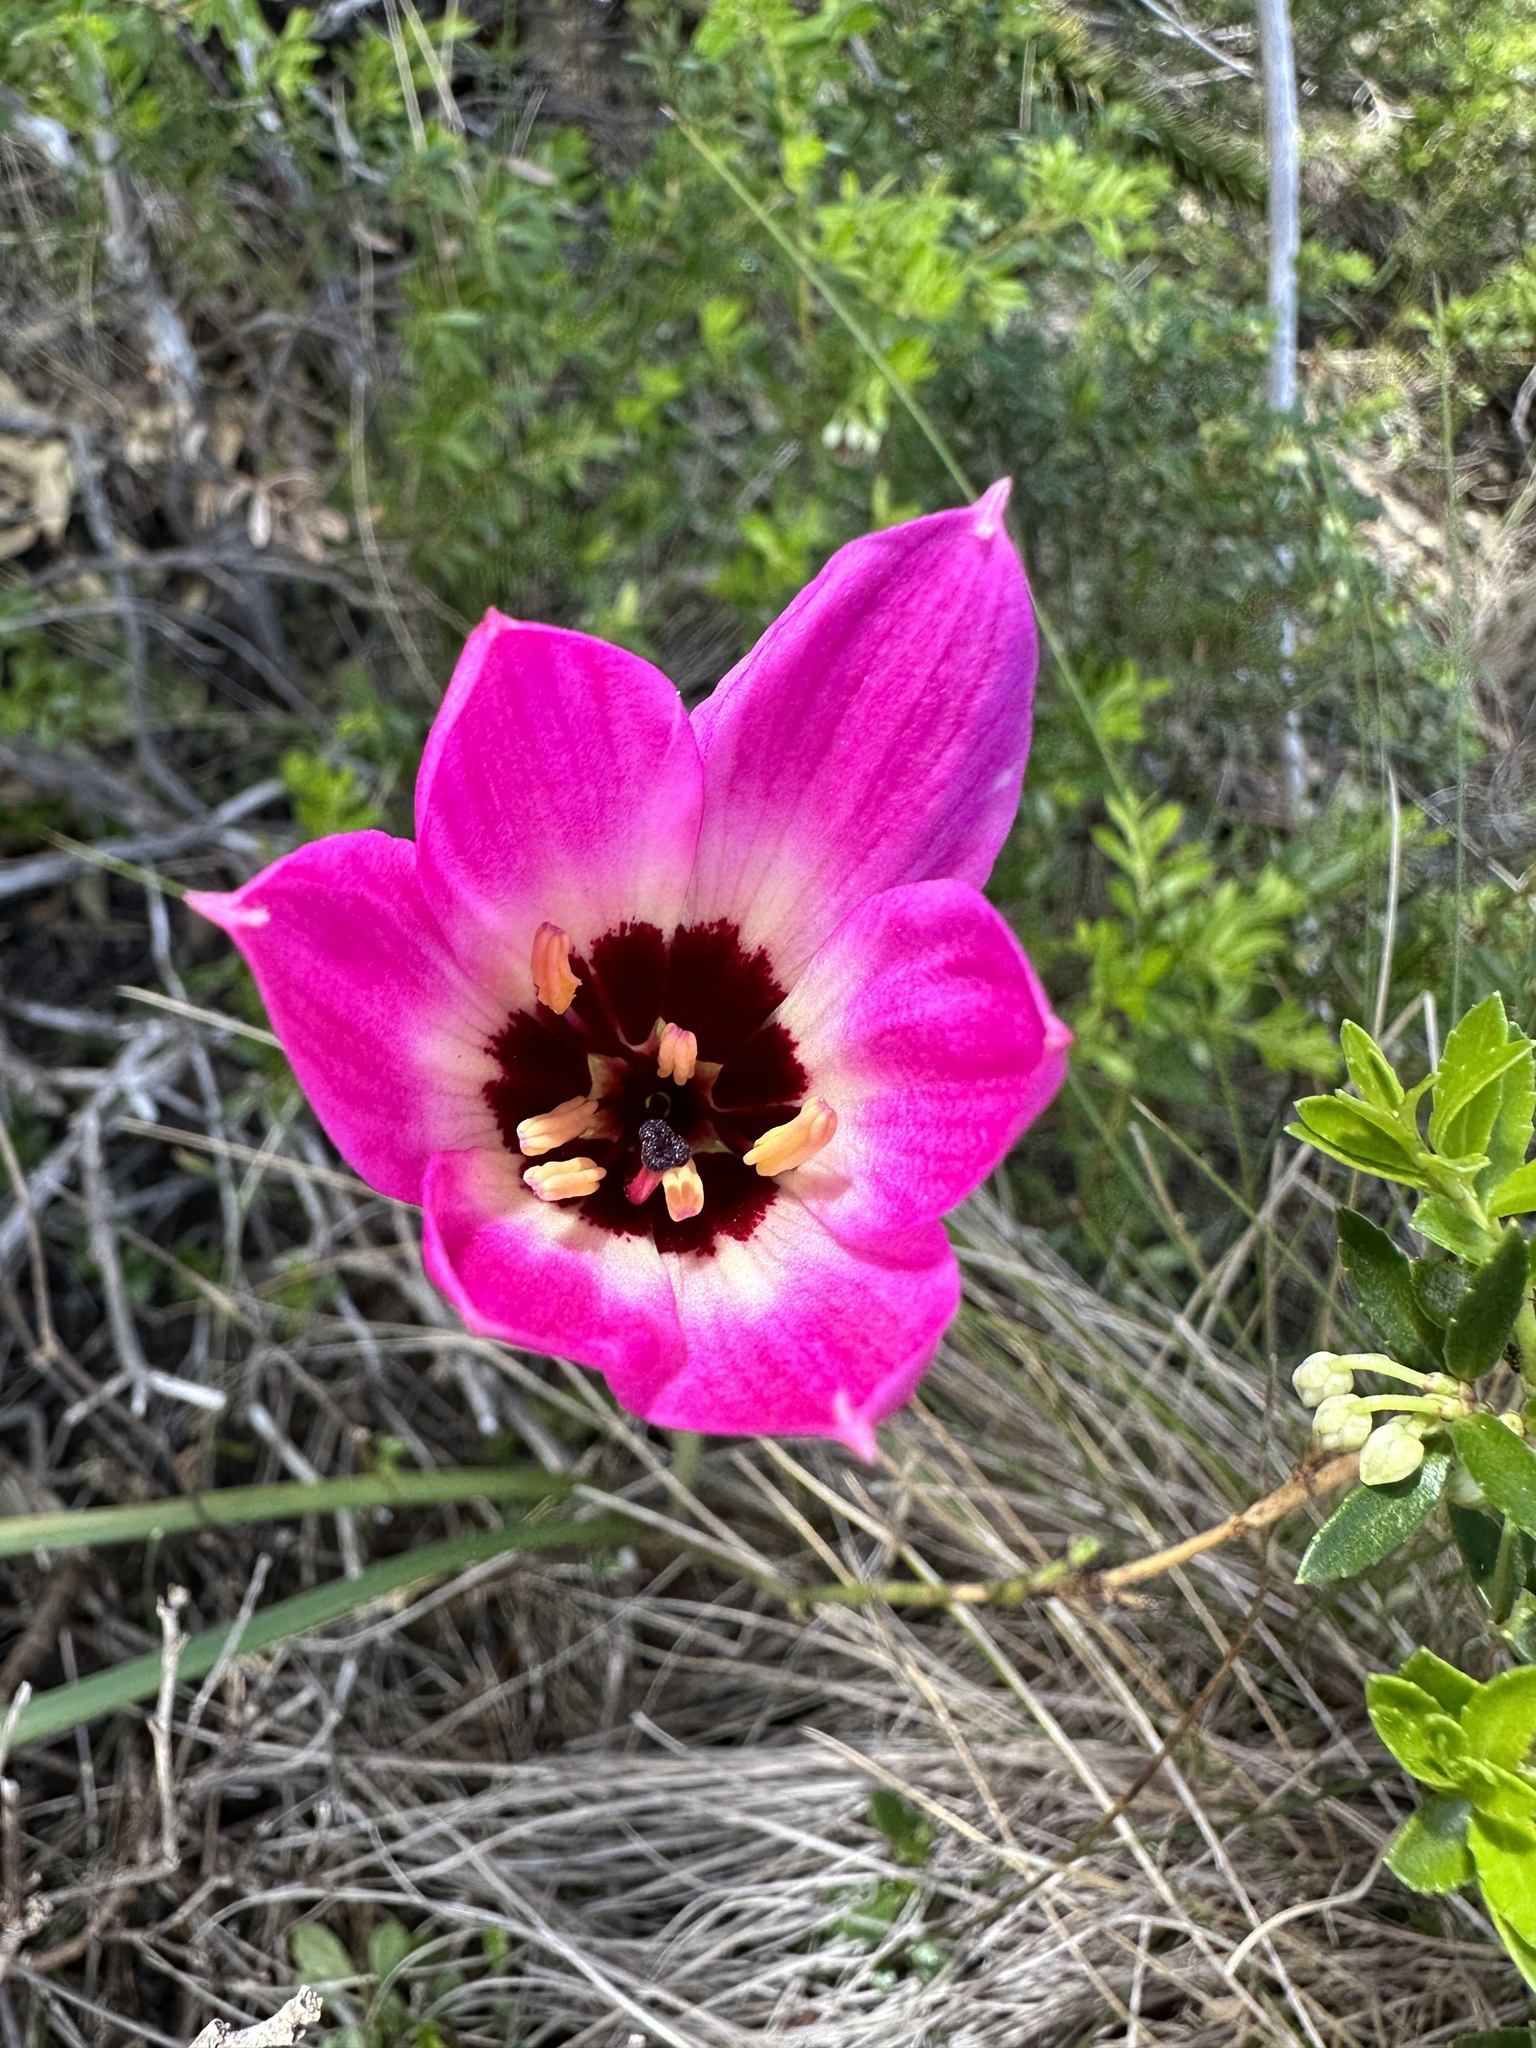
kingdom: Plantae
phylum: Tracheophyta
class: Liliopsida
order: Asparagales
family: Amaryllidaceae
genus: Rhodolirium
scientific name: Rhodolirium andicola
